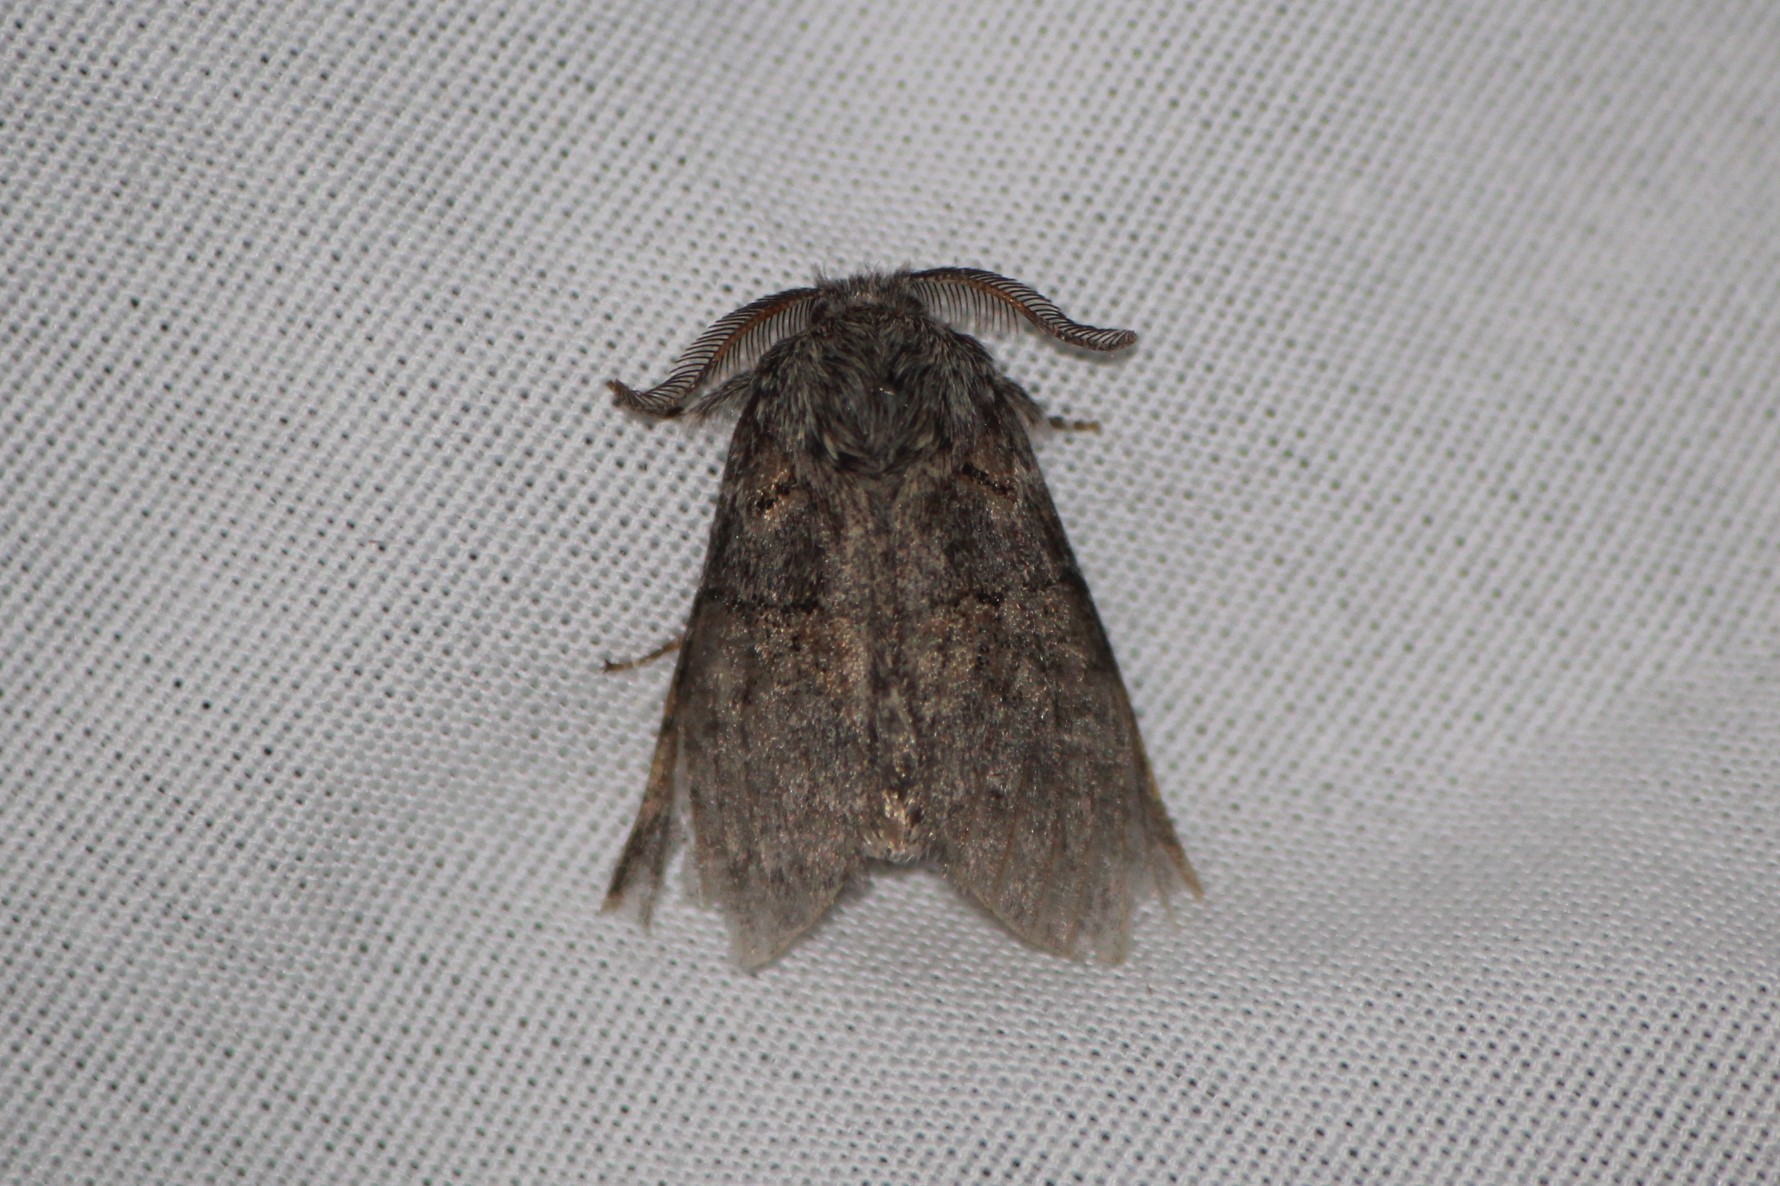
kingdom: Animalia
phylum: Arthropoda
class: Insecta
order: Lepidoptera
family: Notodontidae
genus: Gluphisia
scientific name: Gluphisia septentrionis
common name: Common gluphisia
